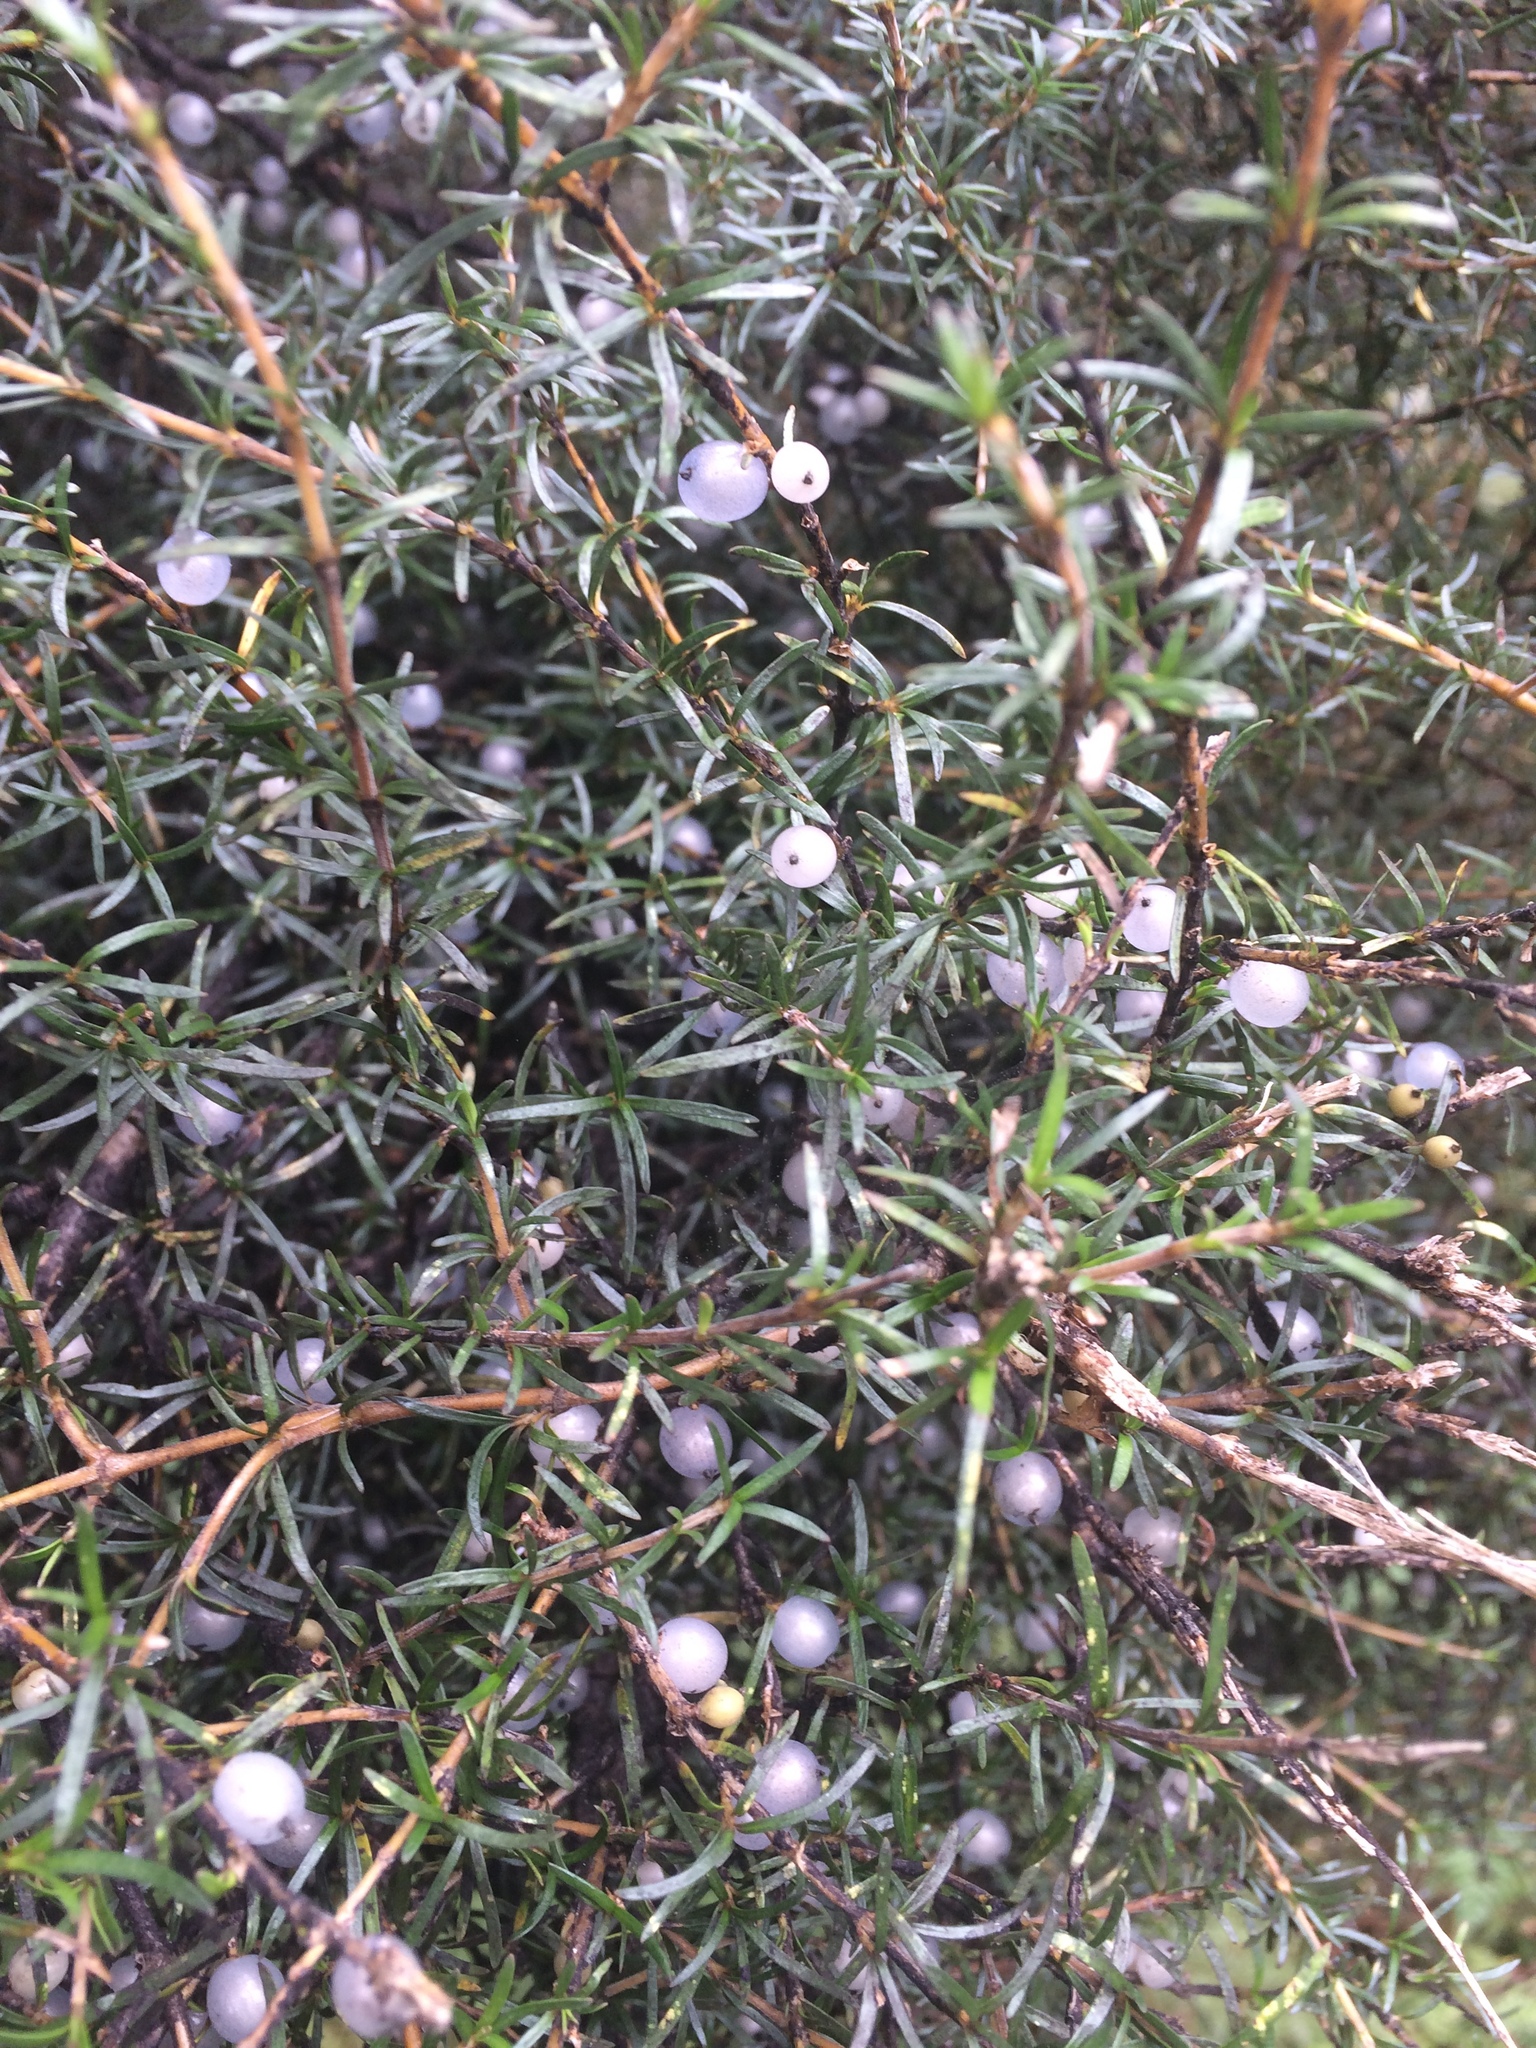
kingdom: Plantae
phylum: Tracheophyta
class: Magnoliopsida
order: Gentianales
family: Rubiaceae
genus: Coprosma
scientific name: Coprosma rugosa
